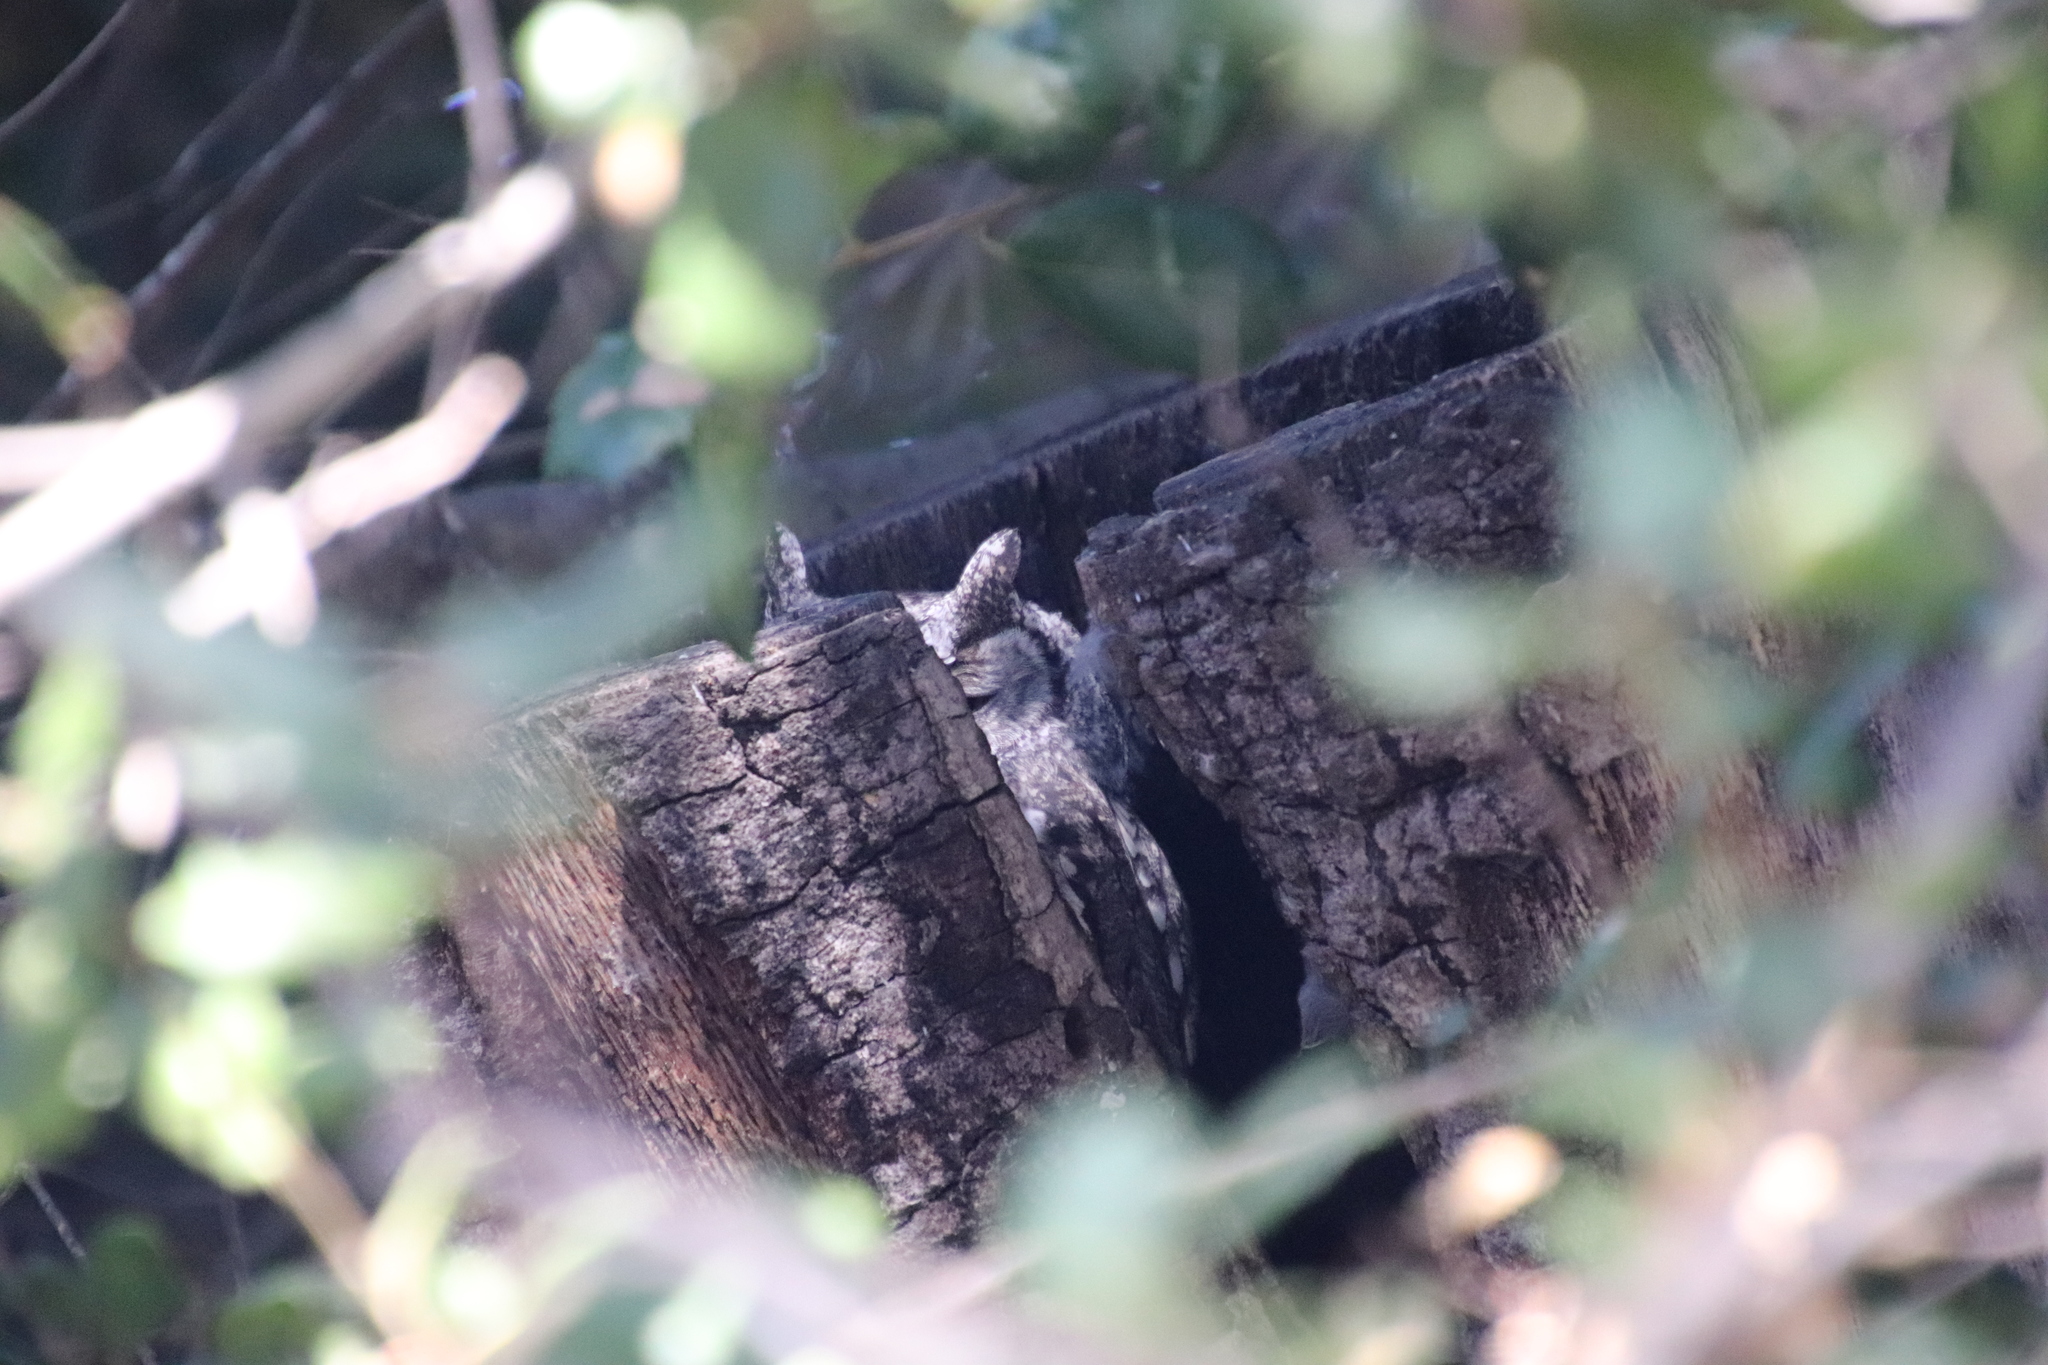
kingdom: Animalia
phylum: Chordata
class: Aves
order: Strigiformes
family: Strigidae
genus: Megascops
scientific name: Megascops kennicottii
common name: Western screech-owl
